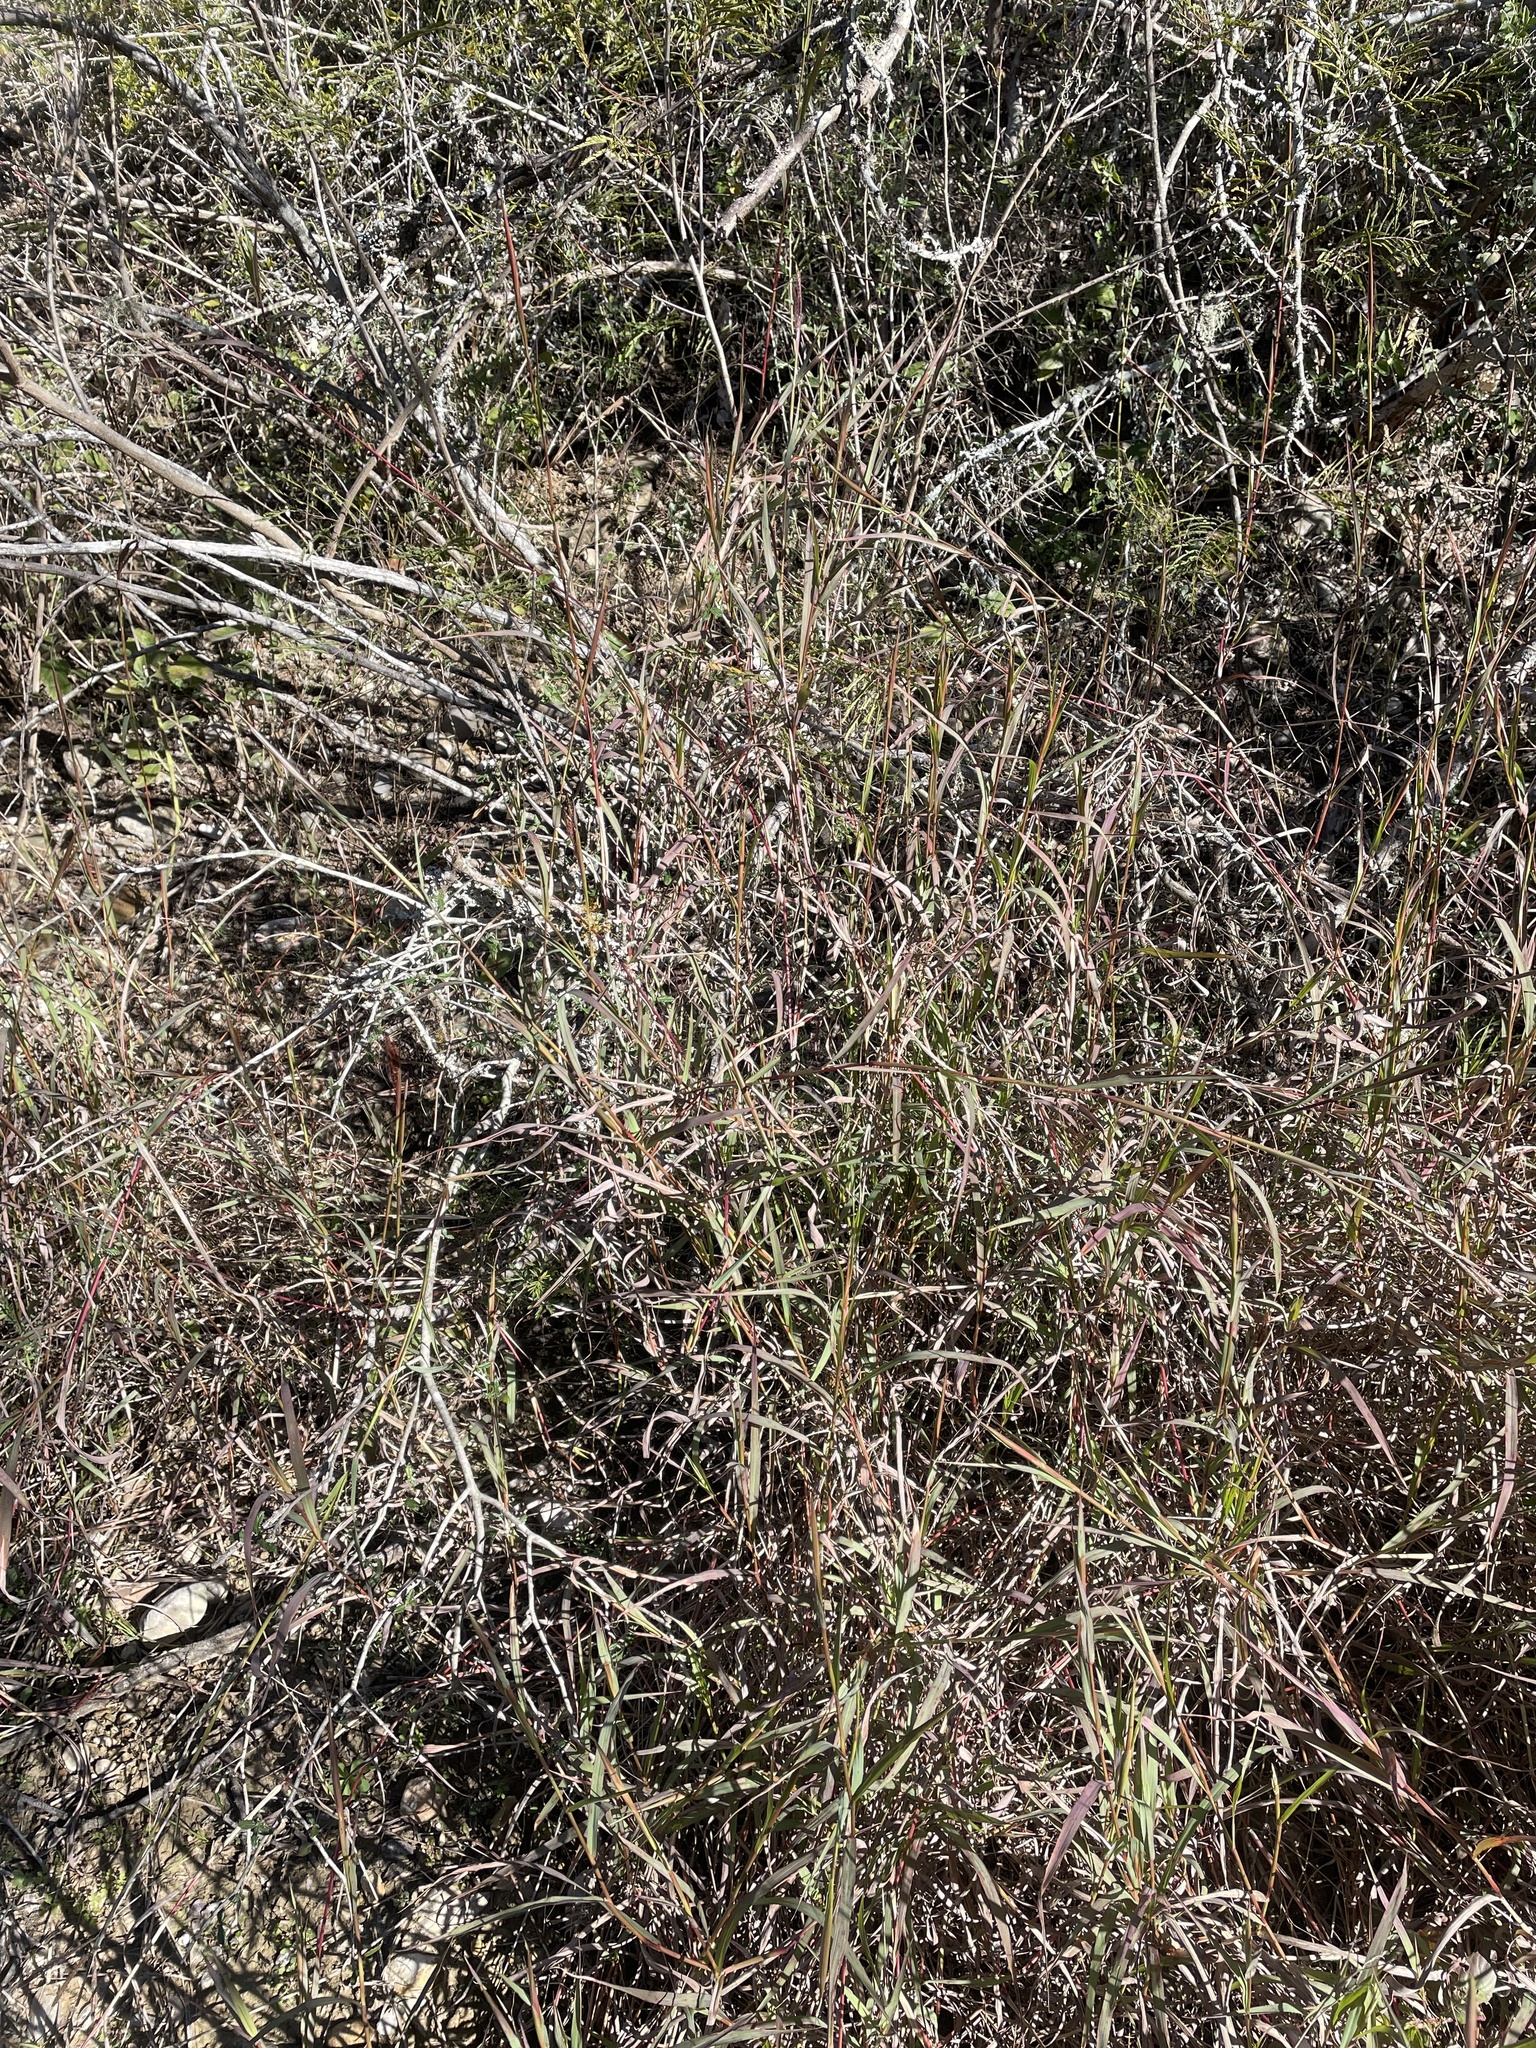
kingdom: Plantae
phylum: Tracheophyta
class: Liliopsida
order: Poales
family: Poaceae
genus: Dichanthium
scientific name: Dichanthium annulatum
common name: Kleberg's bluestem
